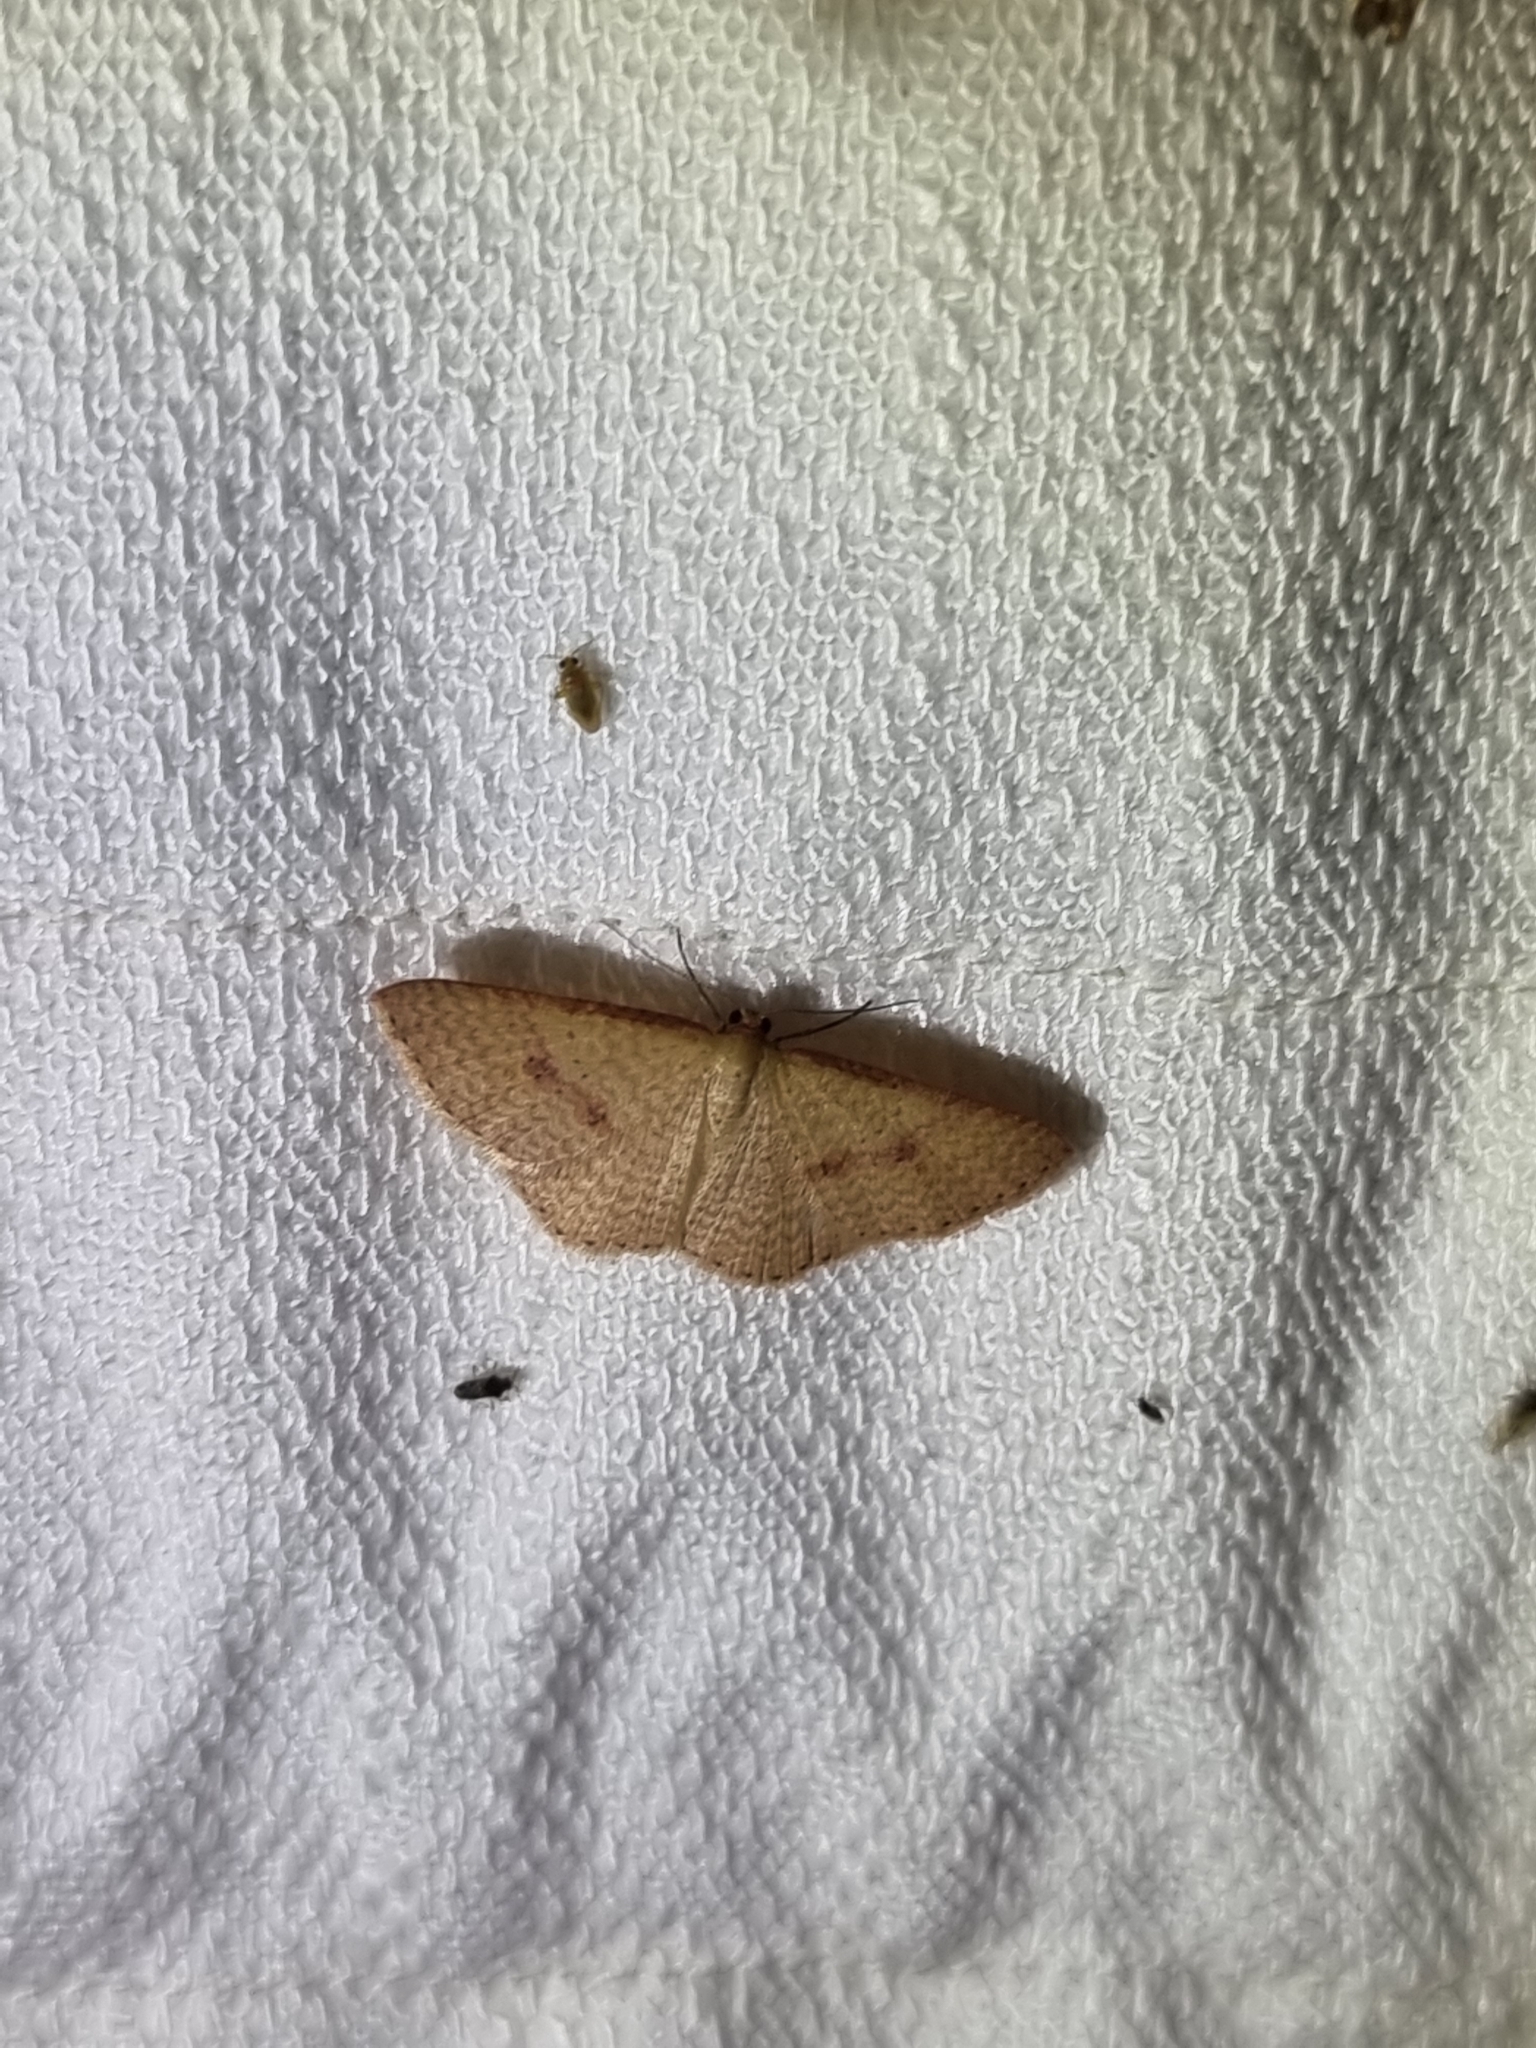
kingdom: Animalia
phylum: Arthropoda
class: Insecta
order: Lepidoptera
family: Geometridae
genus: Epicyme
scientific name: Epicyme rubropunctaria
